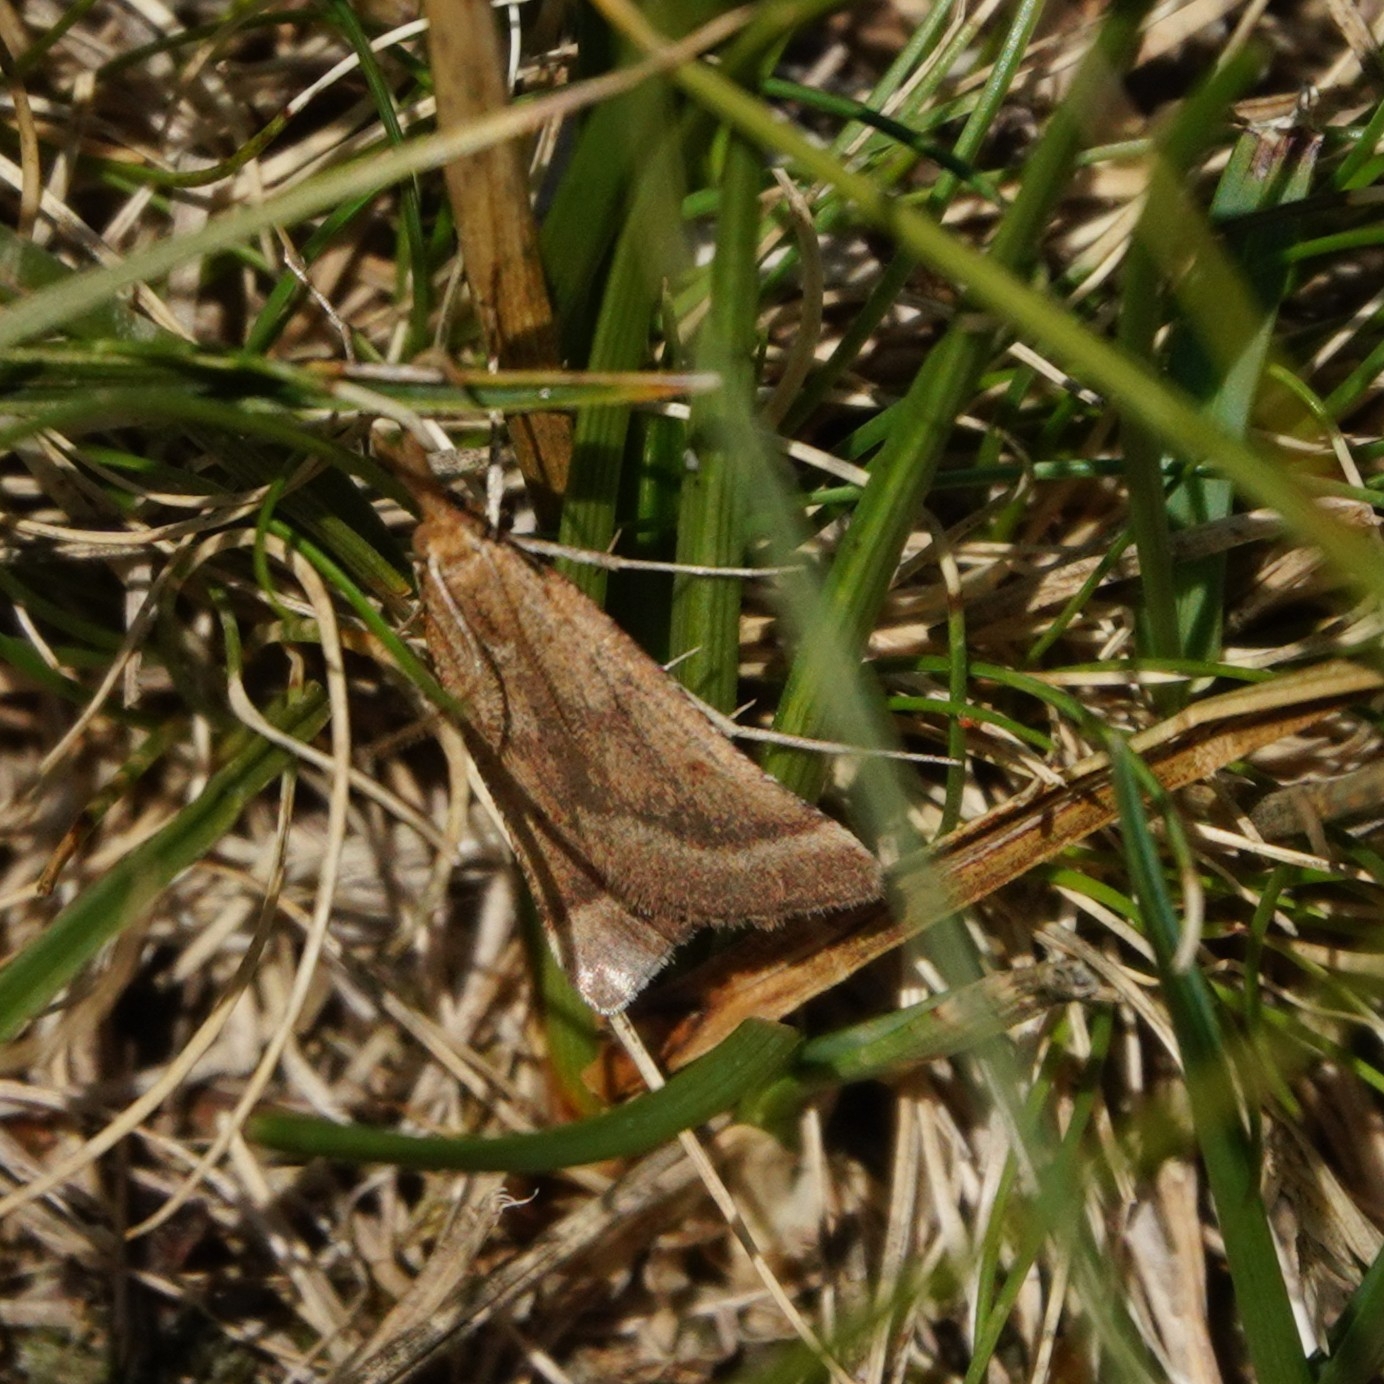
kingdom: Animalia
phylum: Arthropoda
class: Insecta
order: Lepidoptera
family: Pyralidae
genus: Synaphe
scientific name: Synaphe punctalis
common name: Long-legged tabby
